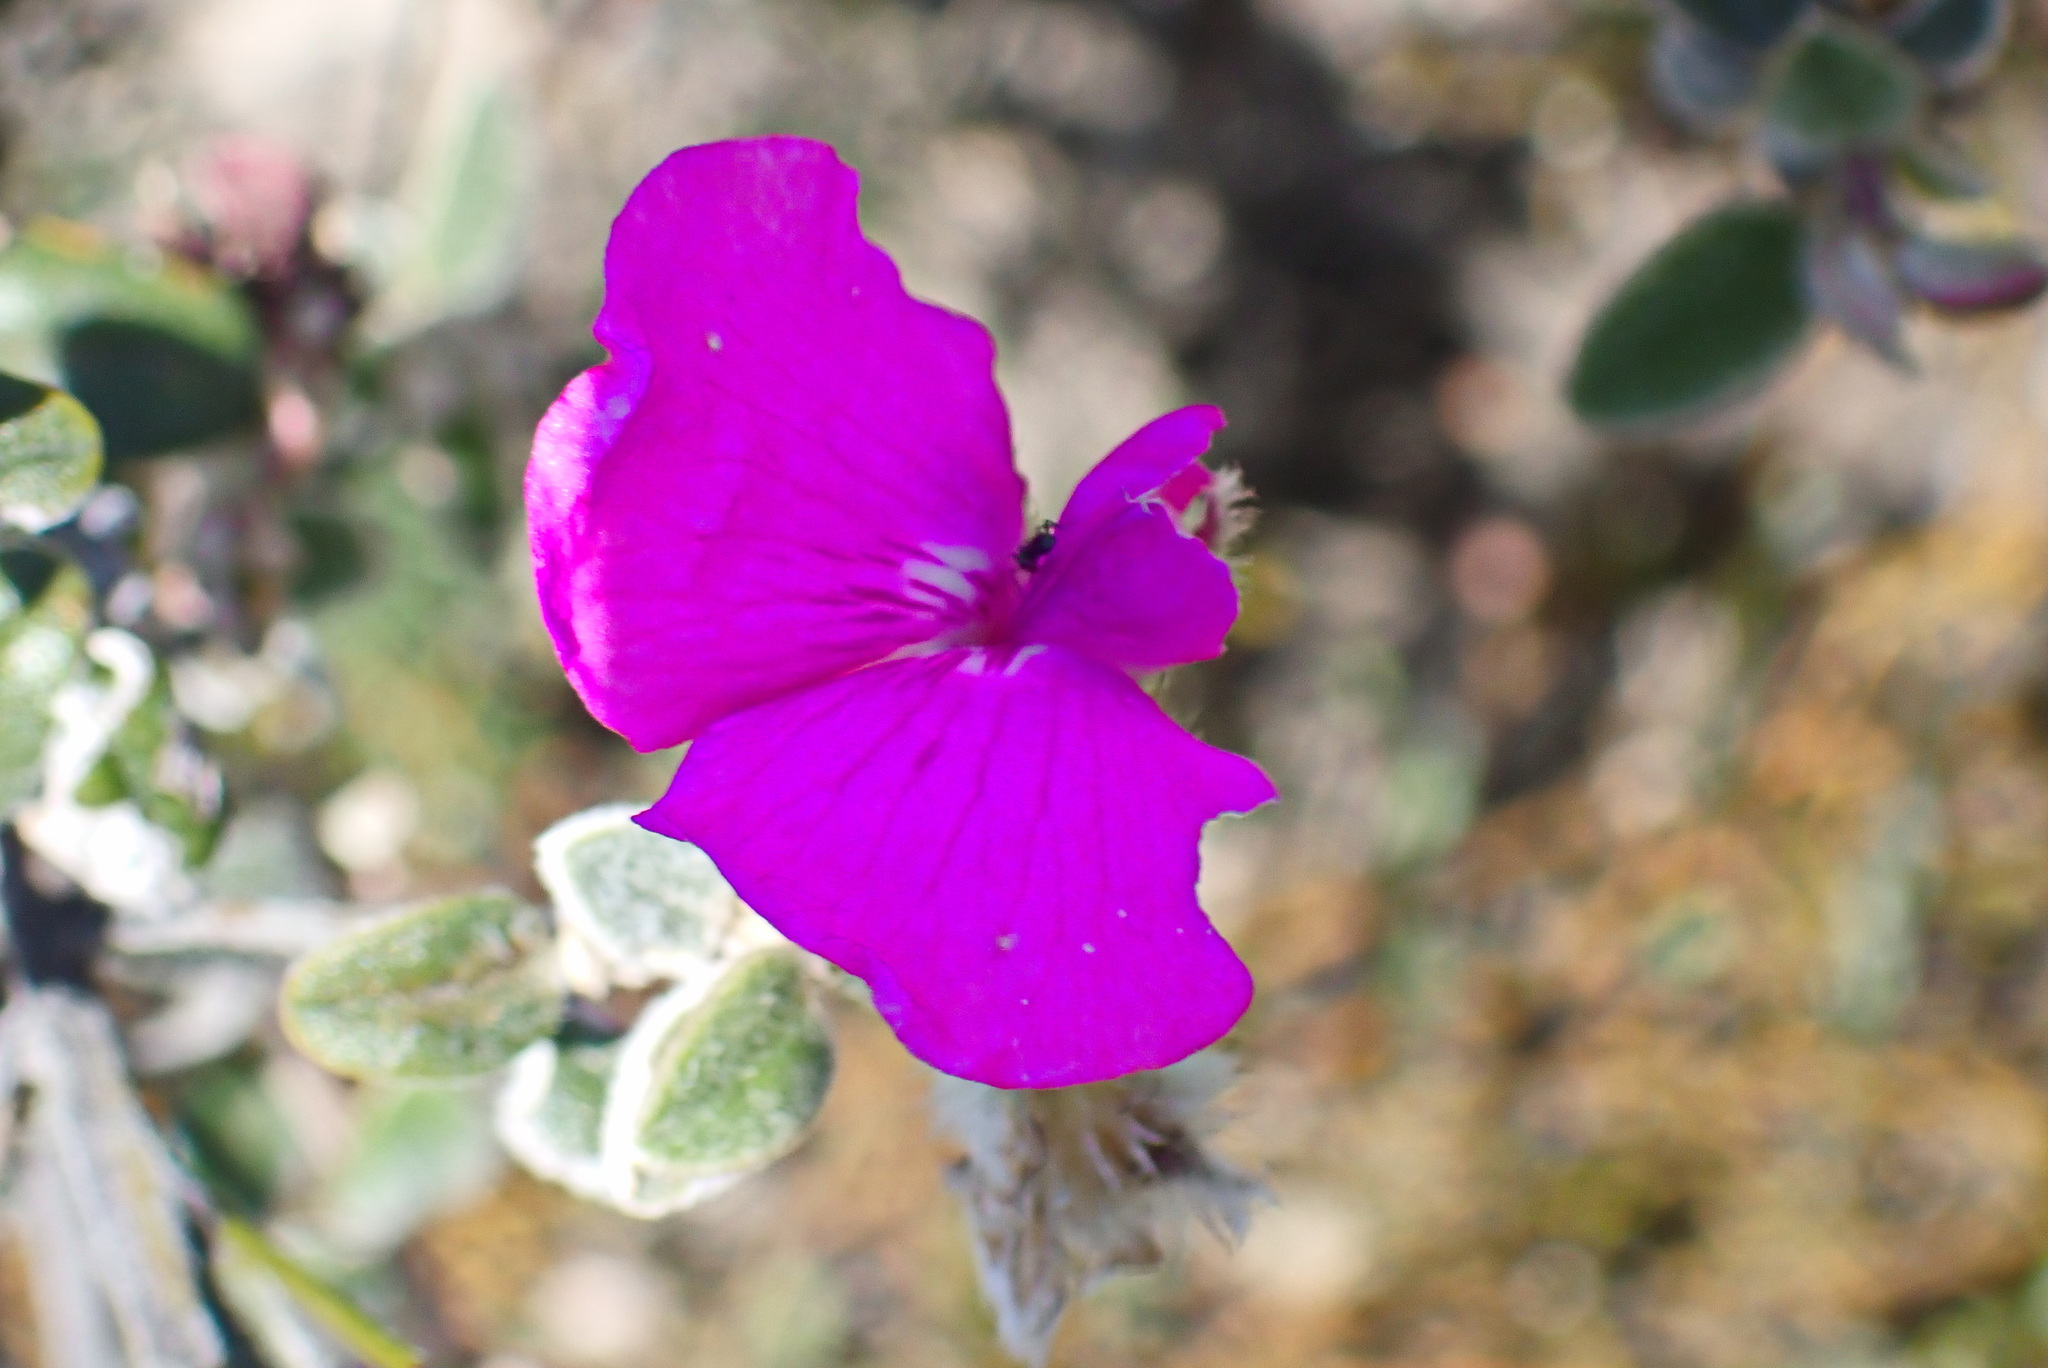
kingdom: Plantae
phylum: Tracheophyta
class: Magnoliopsida
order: Fabales
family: Fabaceae
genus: Podalyria
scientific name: Podalyria burchellii
